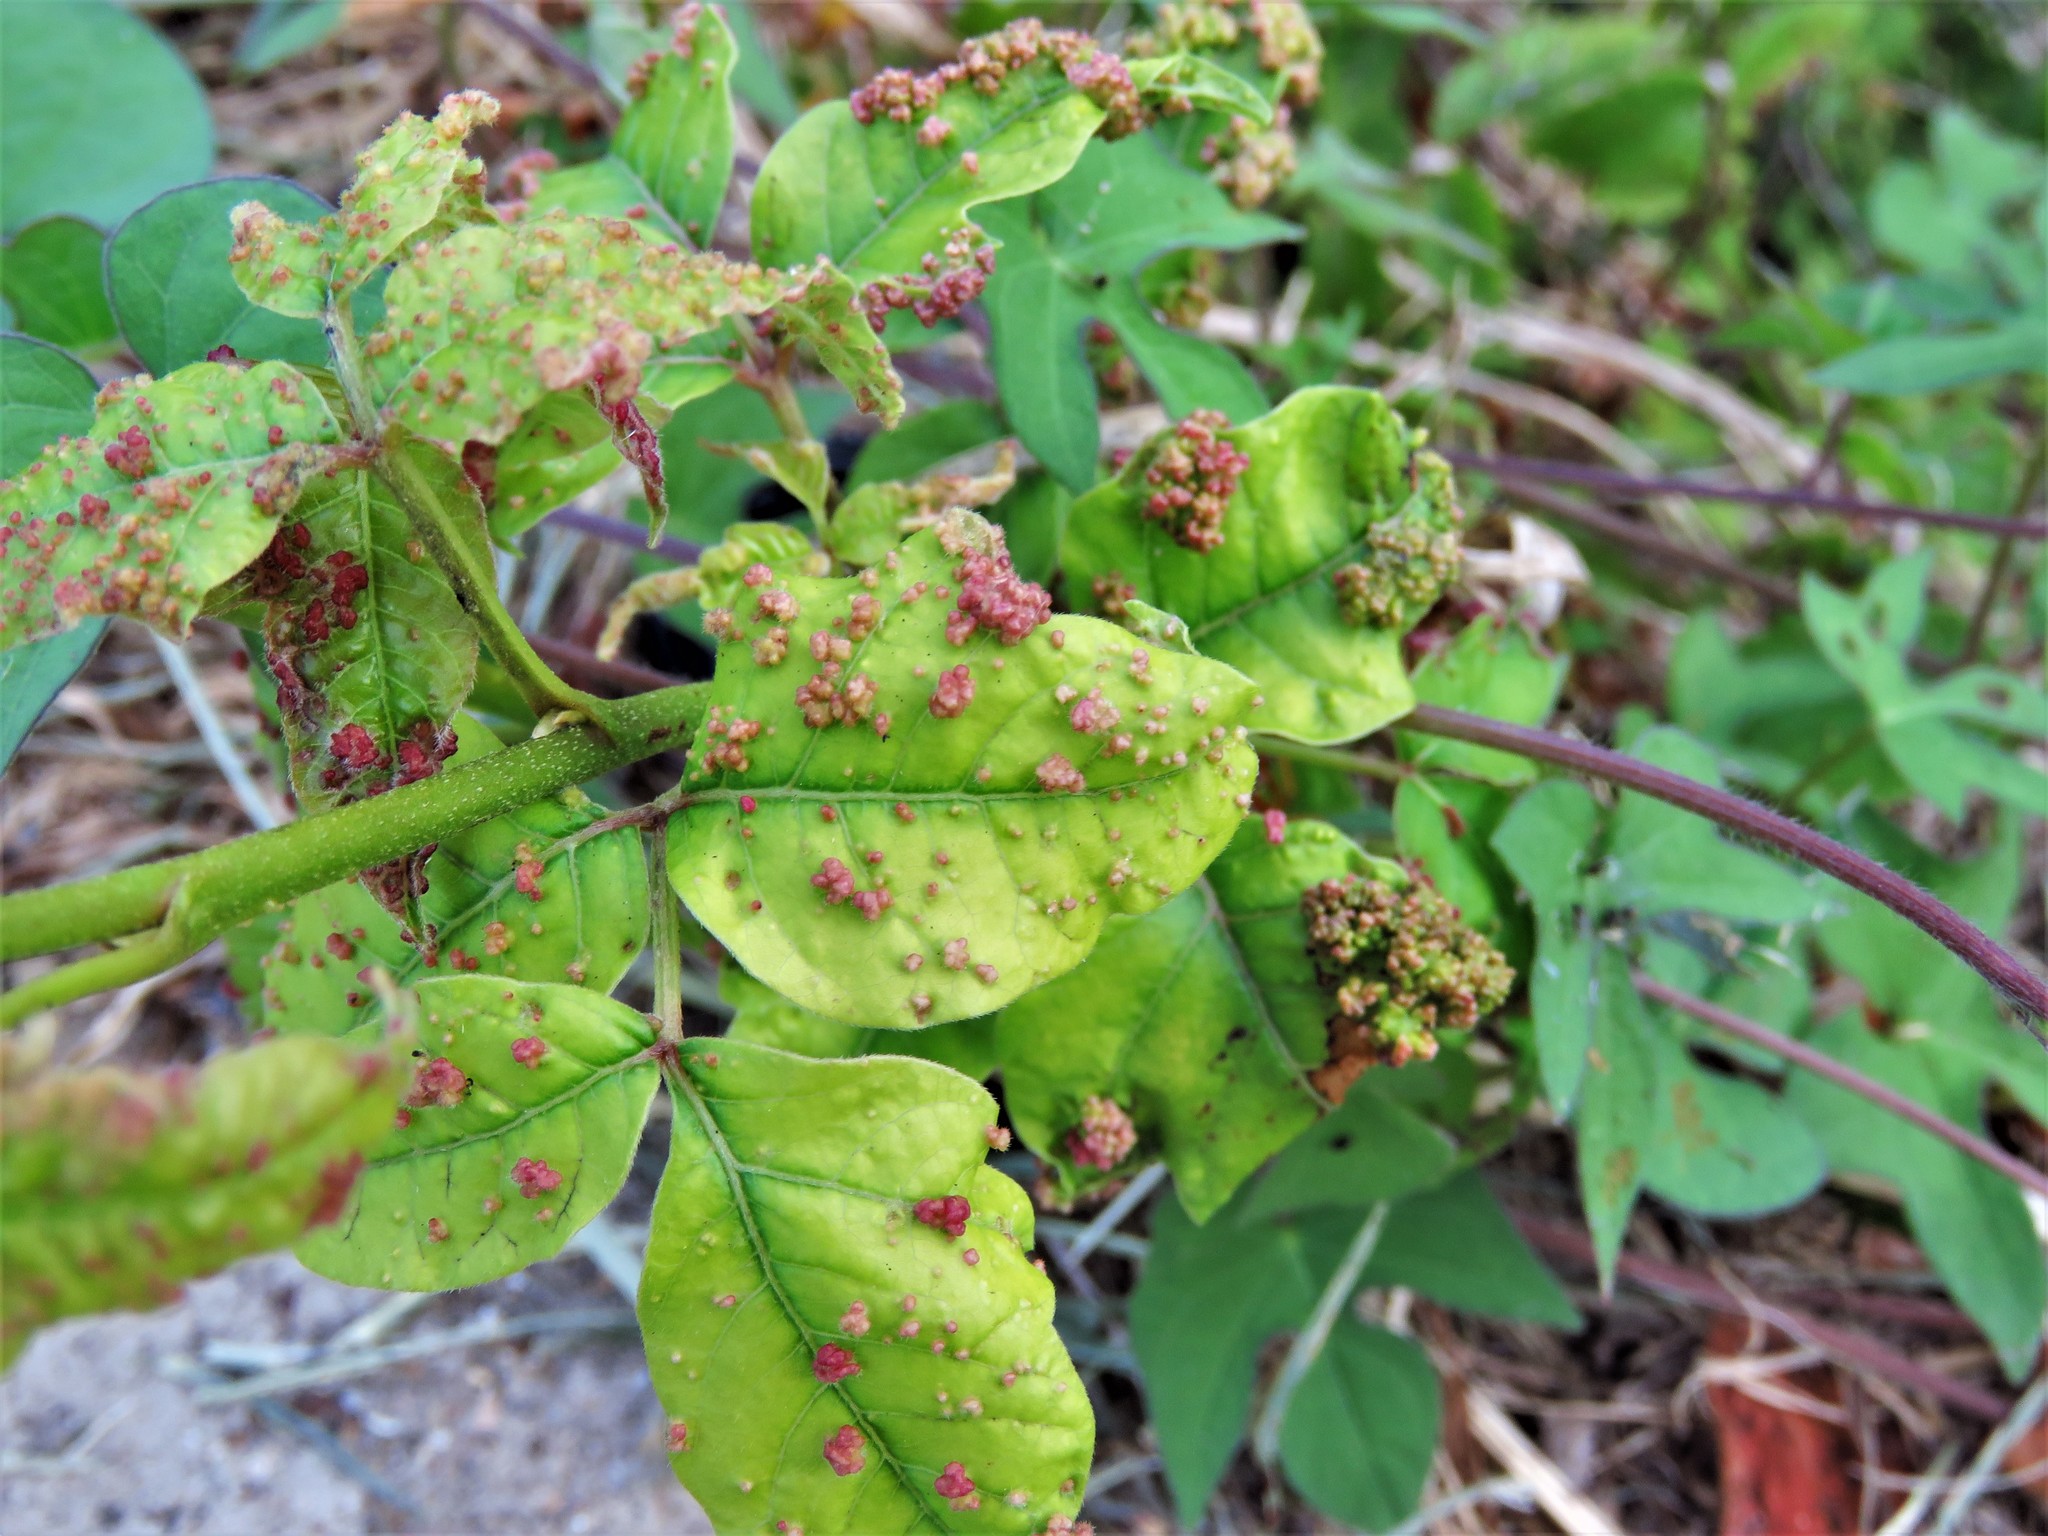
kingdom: Animalia
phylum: Arthropoda
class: Arachnida
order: Trombidiformes
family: Eriophyidae
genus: Aculops
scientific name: Aculops
